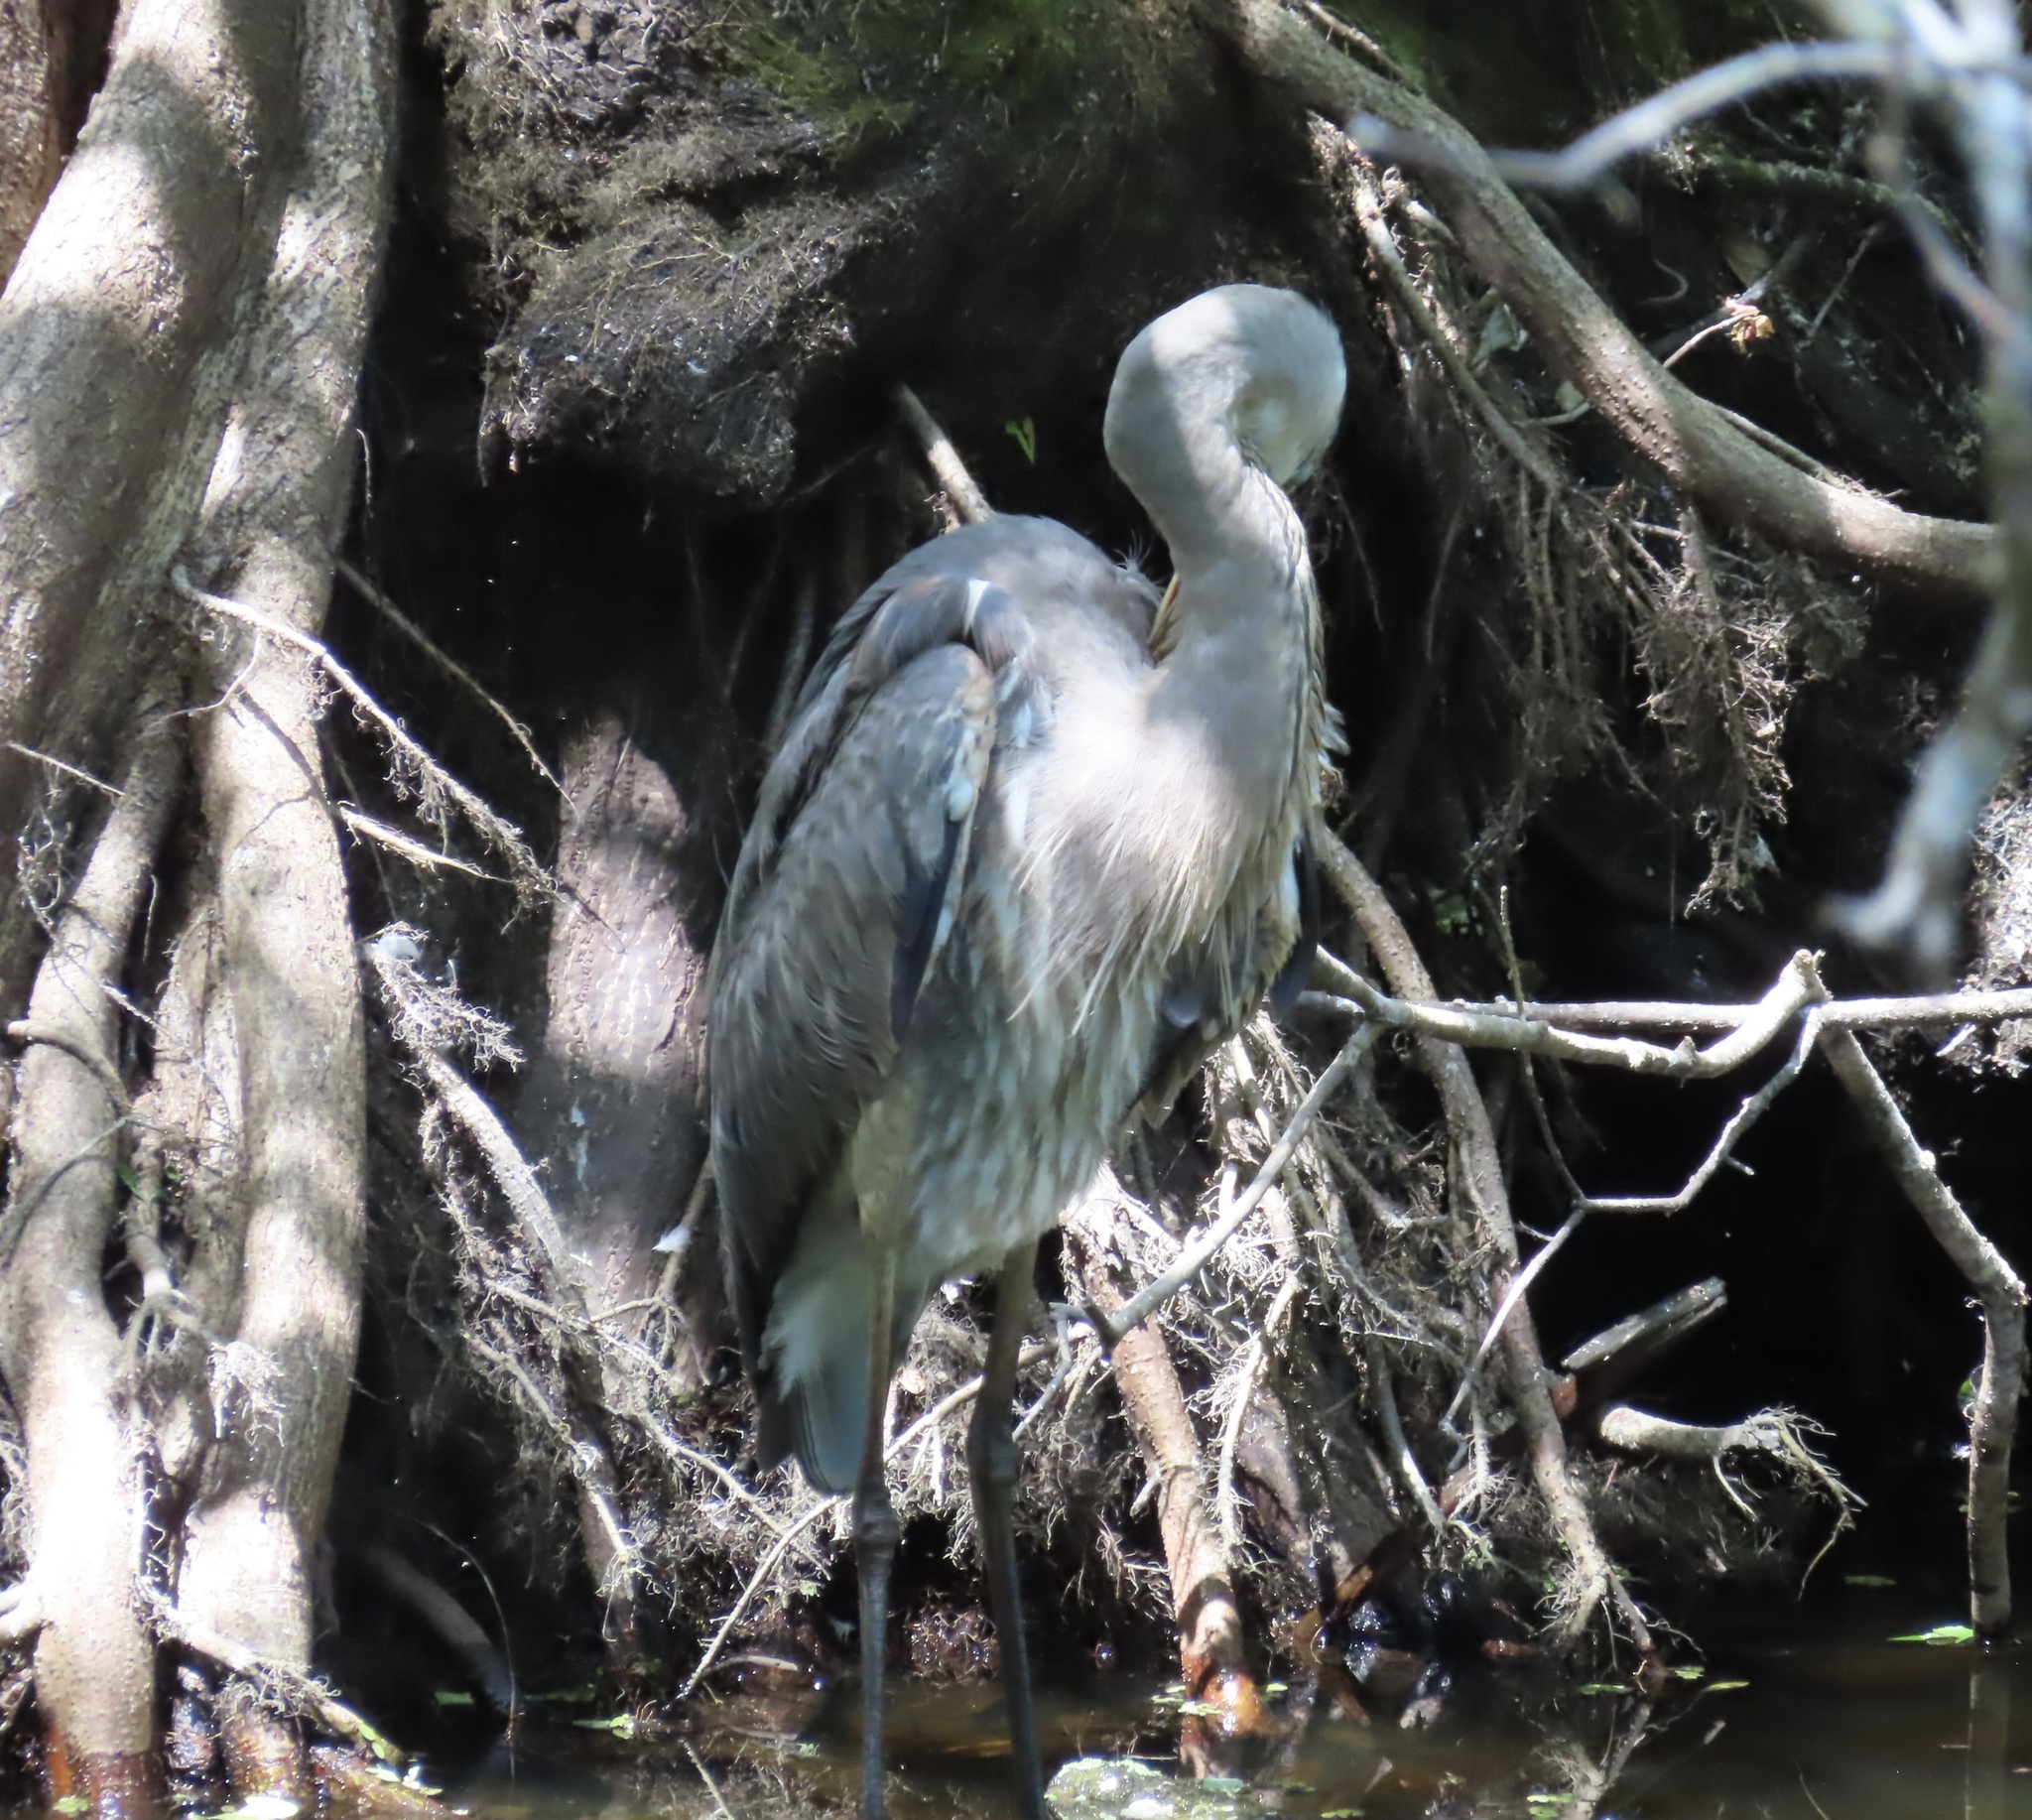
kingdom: Animalia
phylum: Chordata
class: Aves
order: Pelecaniformes
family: Ardeidae
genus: Ardea
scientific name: Ardea herodias
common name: Great blue heron
